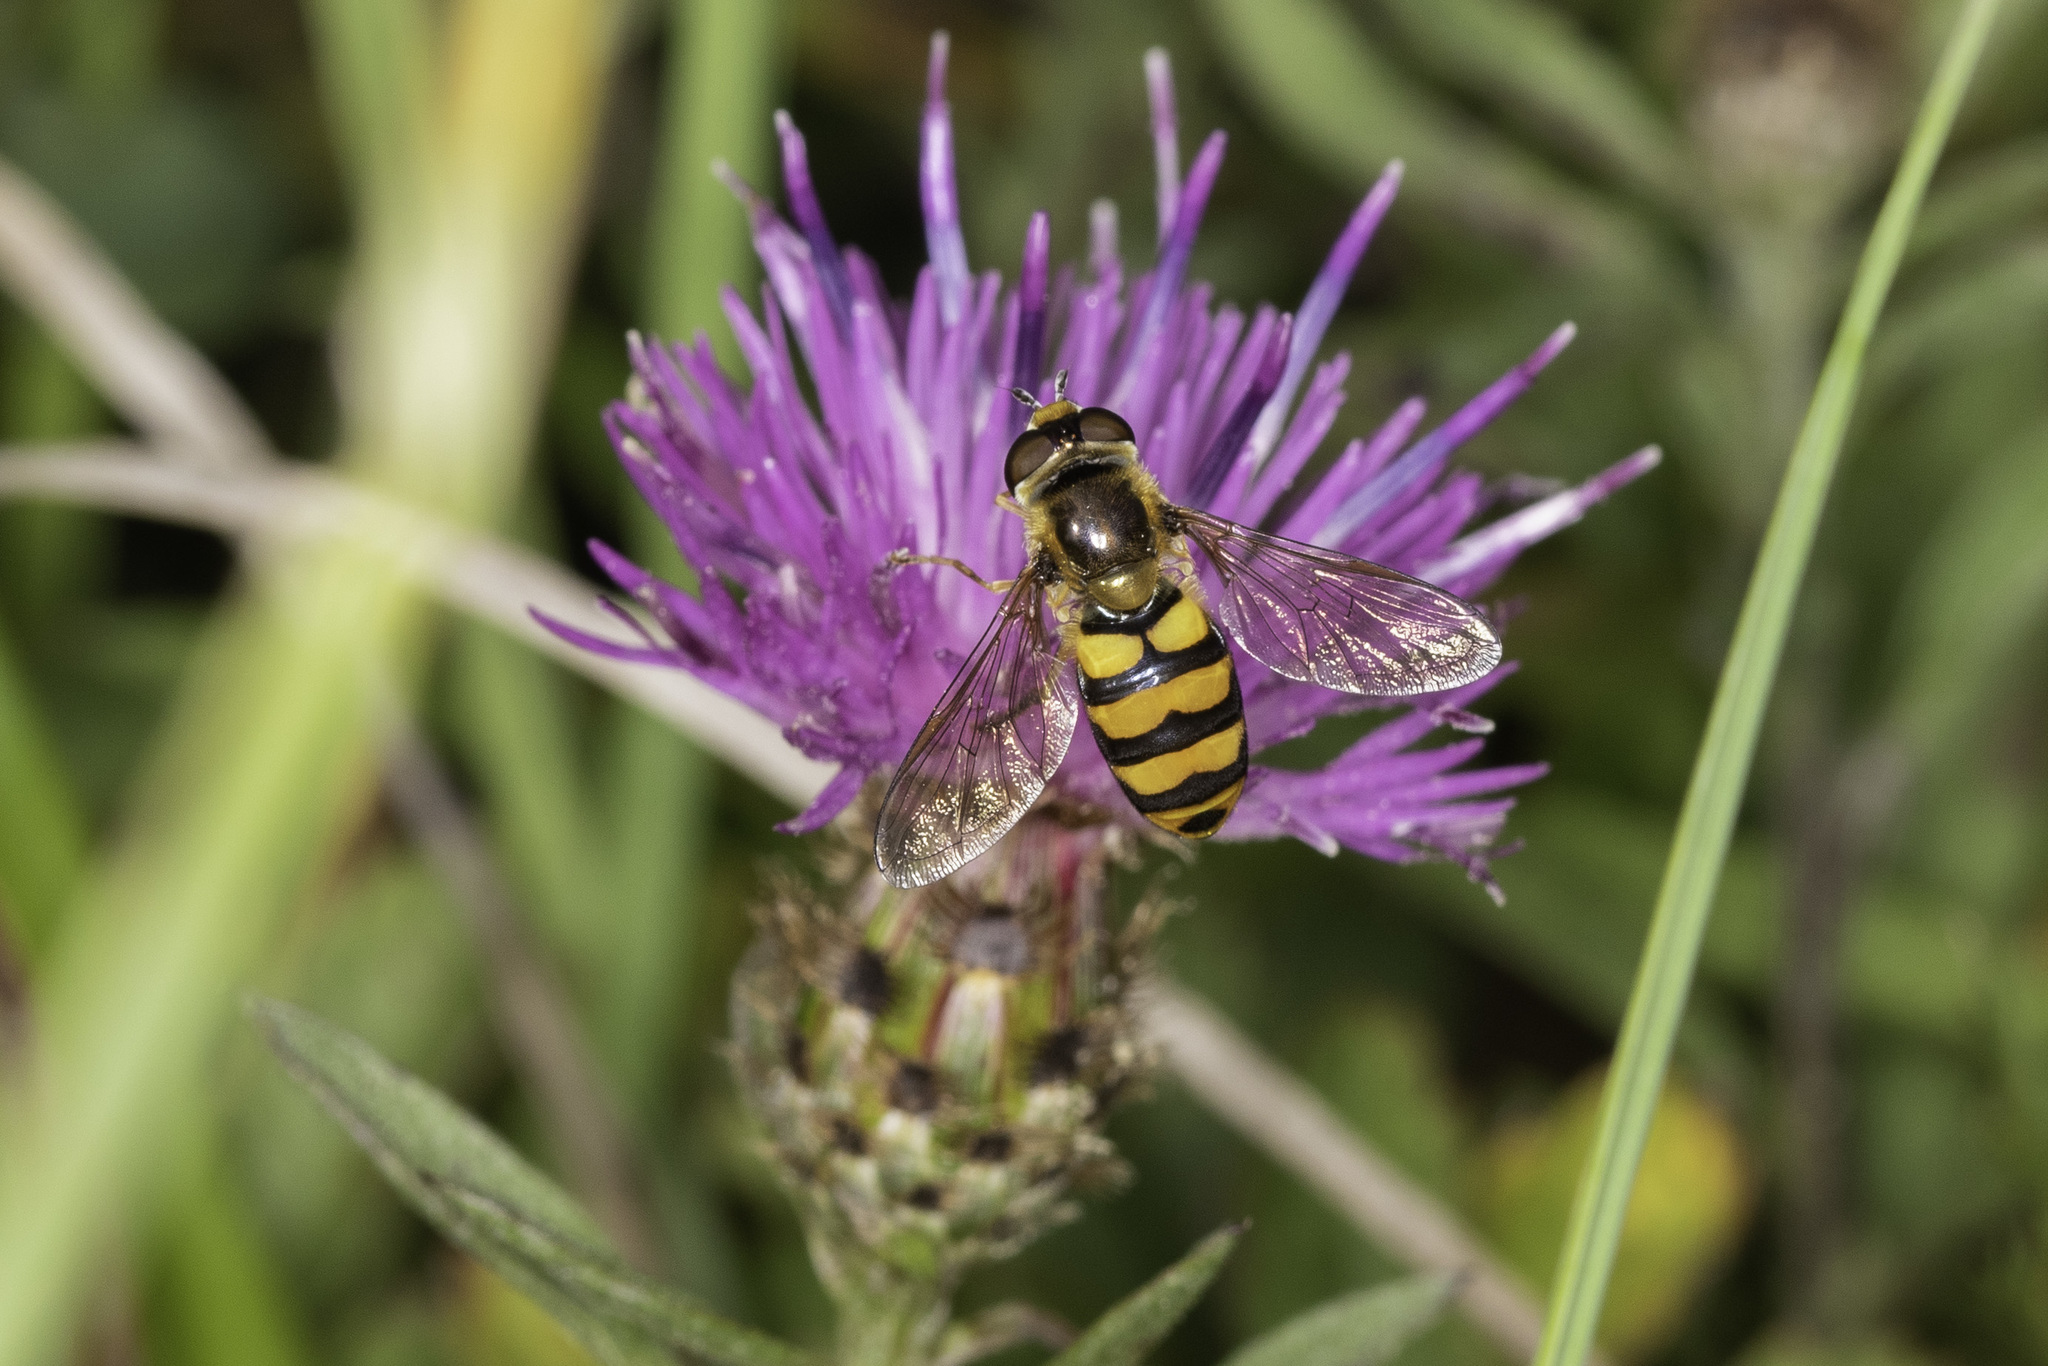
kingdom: Animalia
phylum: Arthropoda
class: Insecta
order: Diptera
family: Syrphidae
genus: Eupeodes
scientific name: Eupeodes latifasciatus
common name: Variable aphideater
